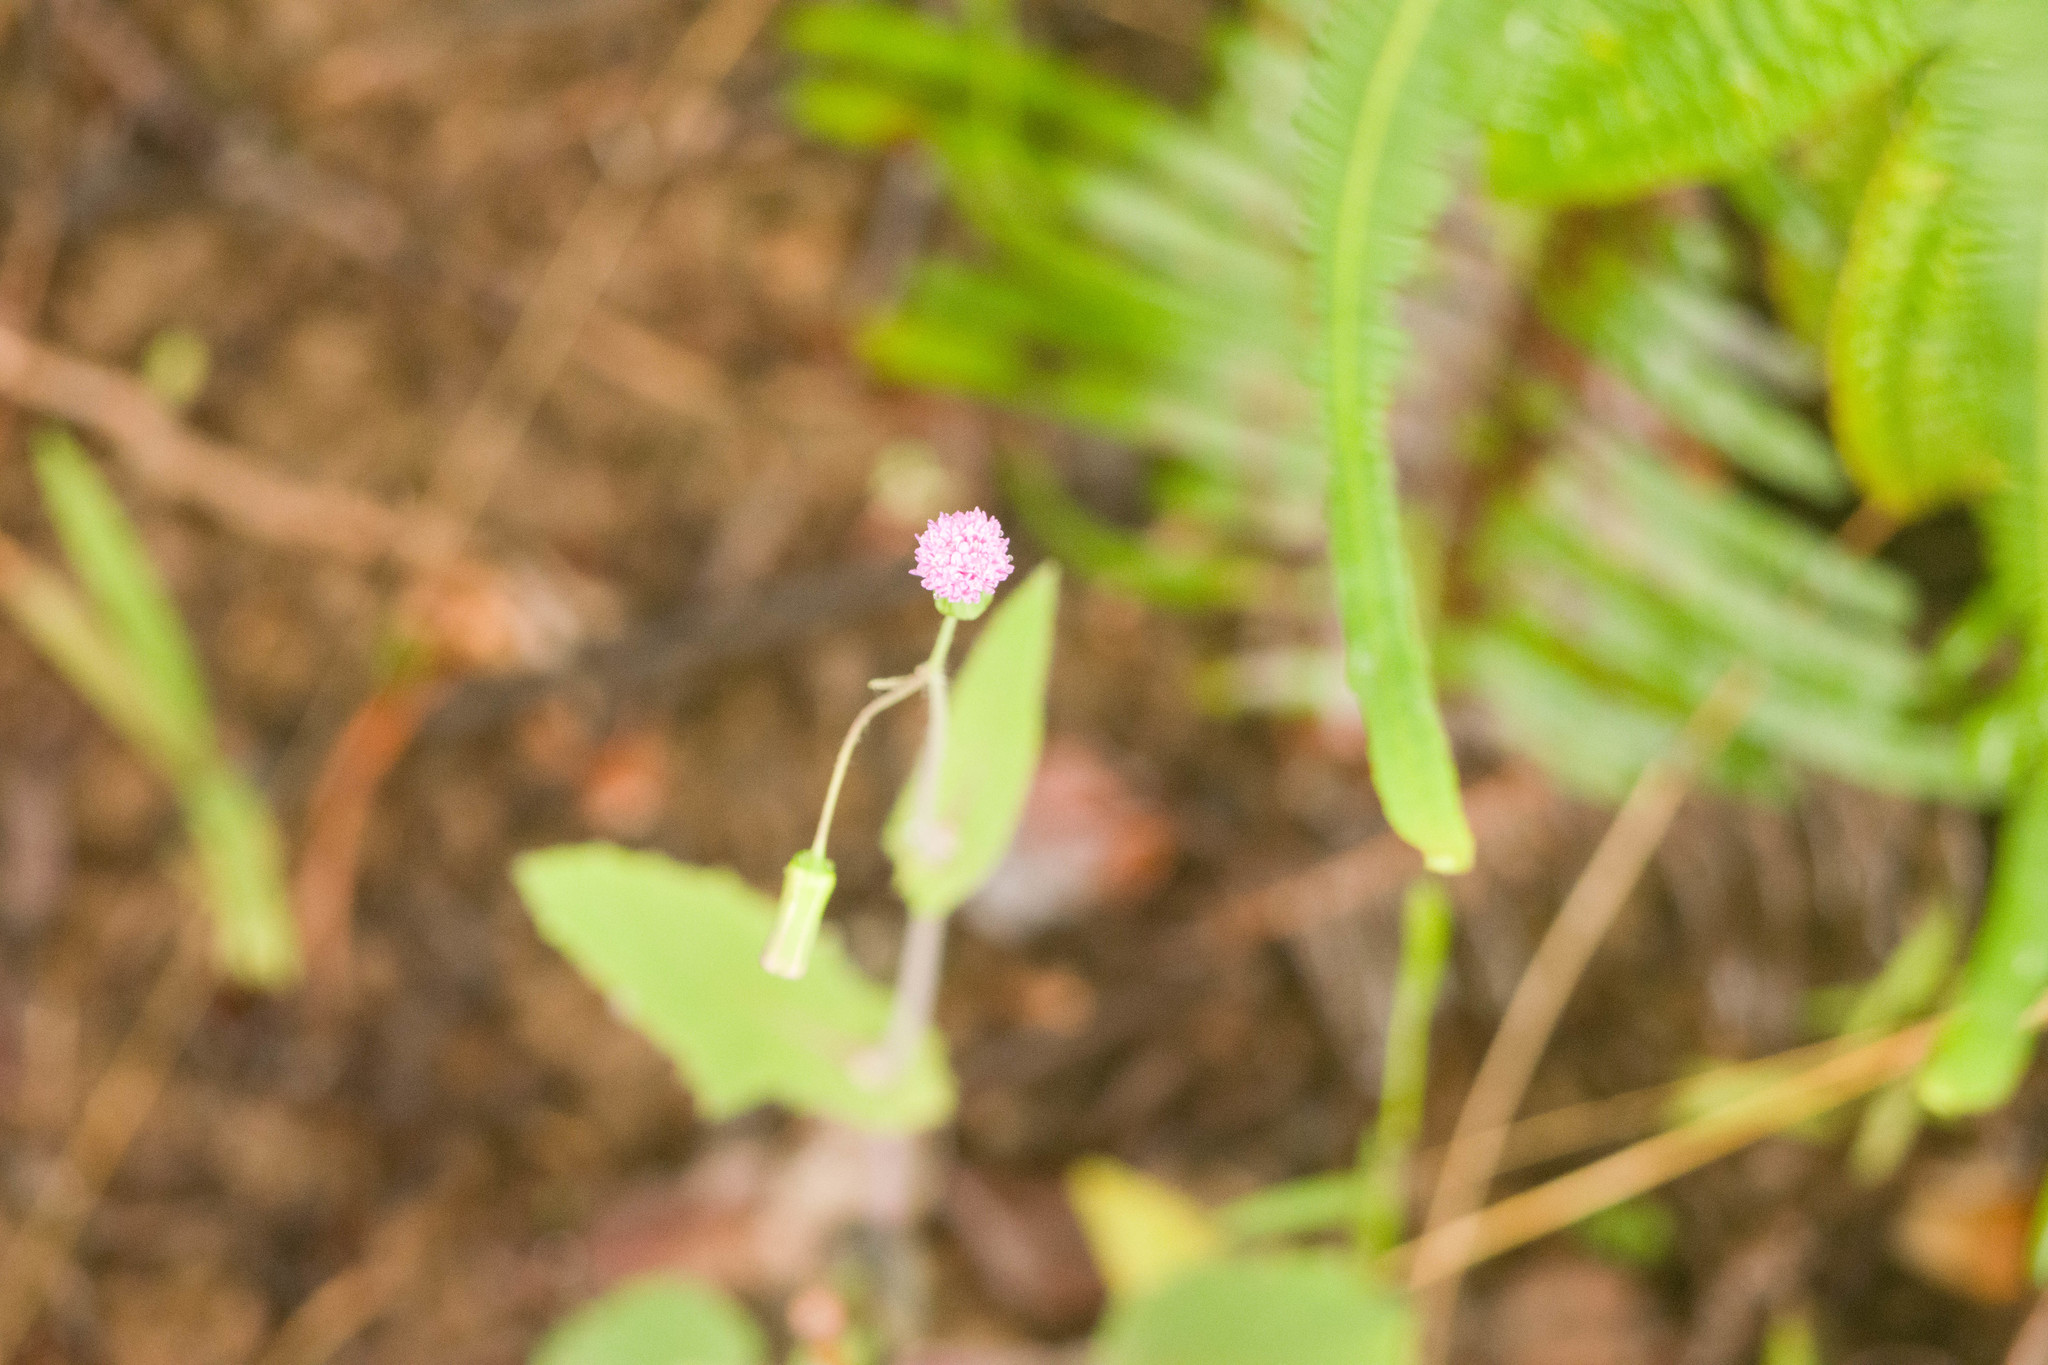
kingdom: Plantae
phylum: Tracheophyta
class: Magnoliopsida
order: Asterales
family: Asteraceae
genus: Emilia
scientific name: Emilia sonchifolia
